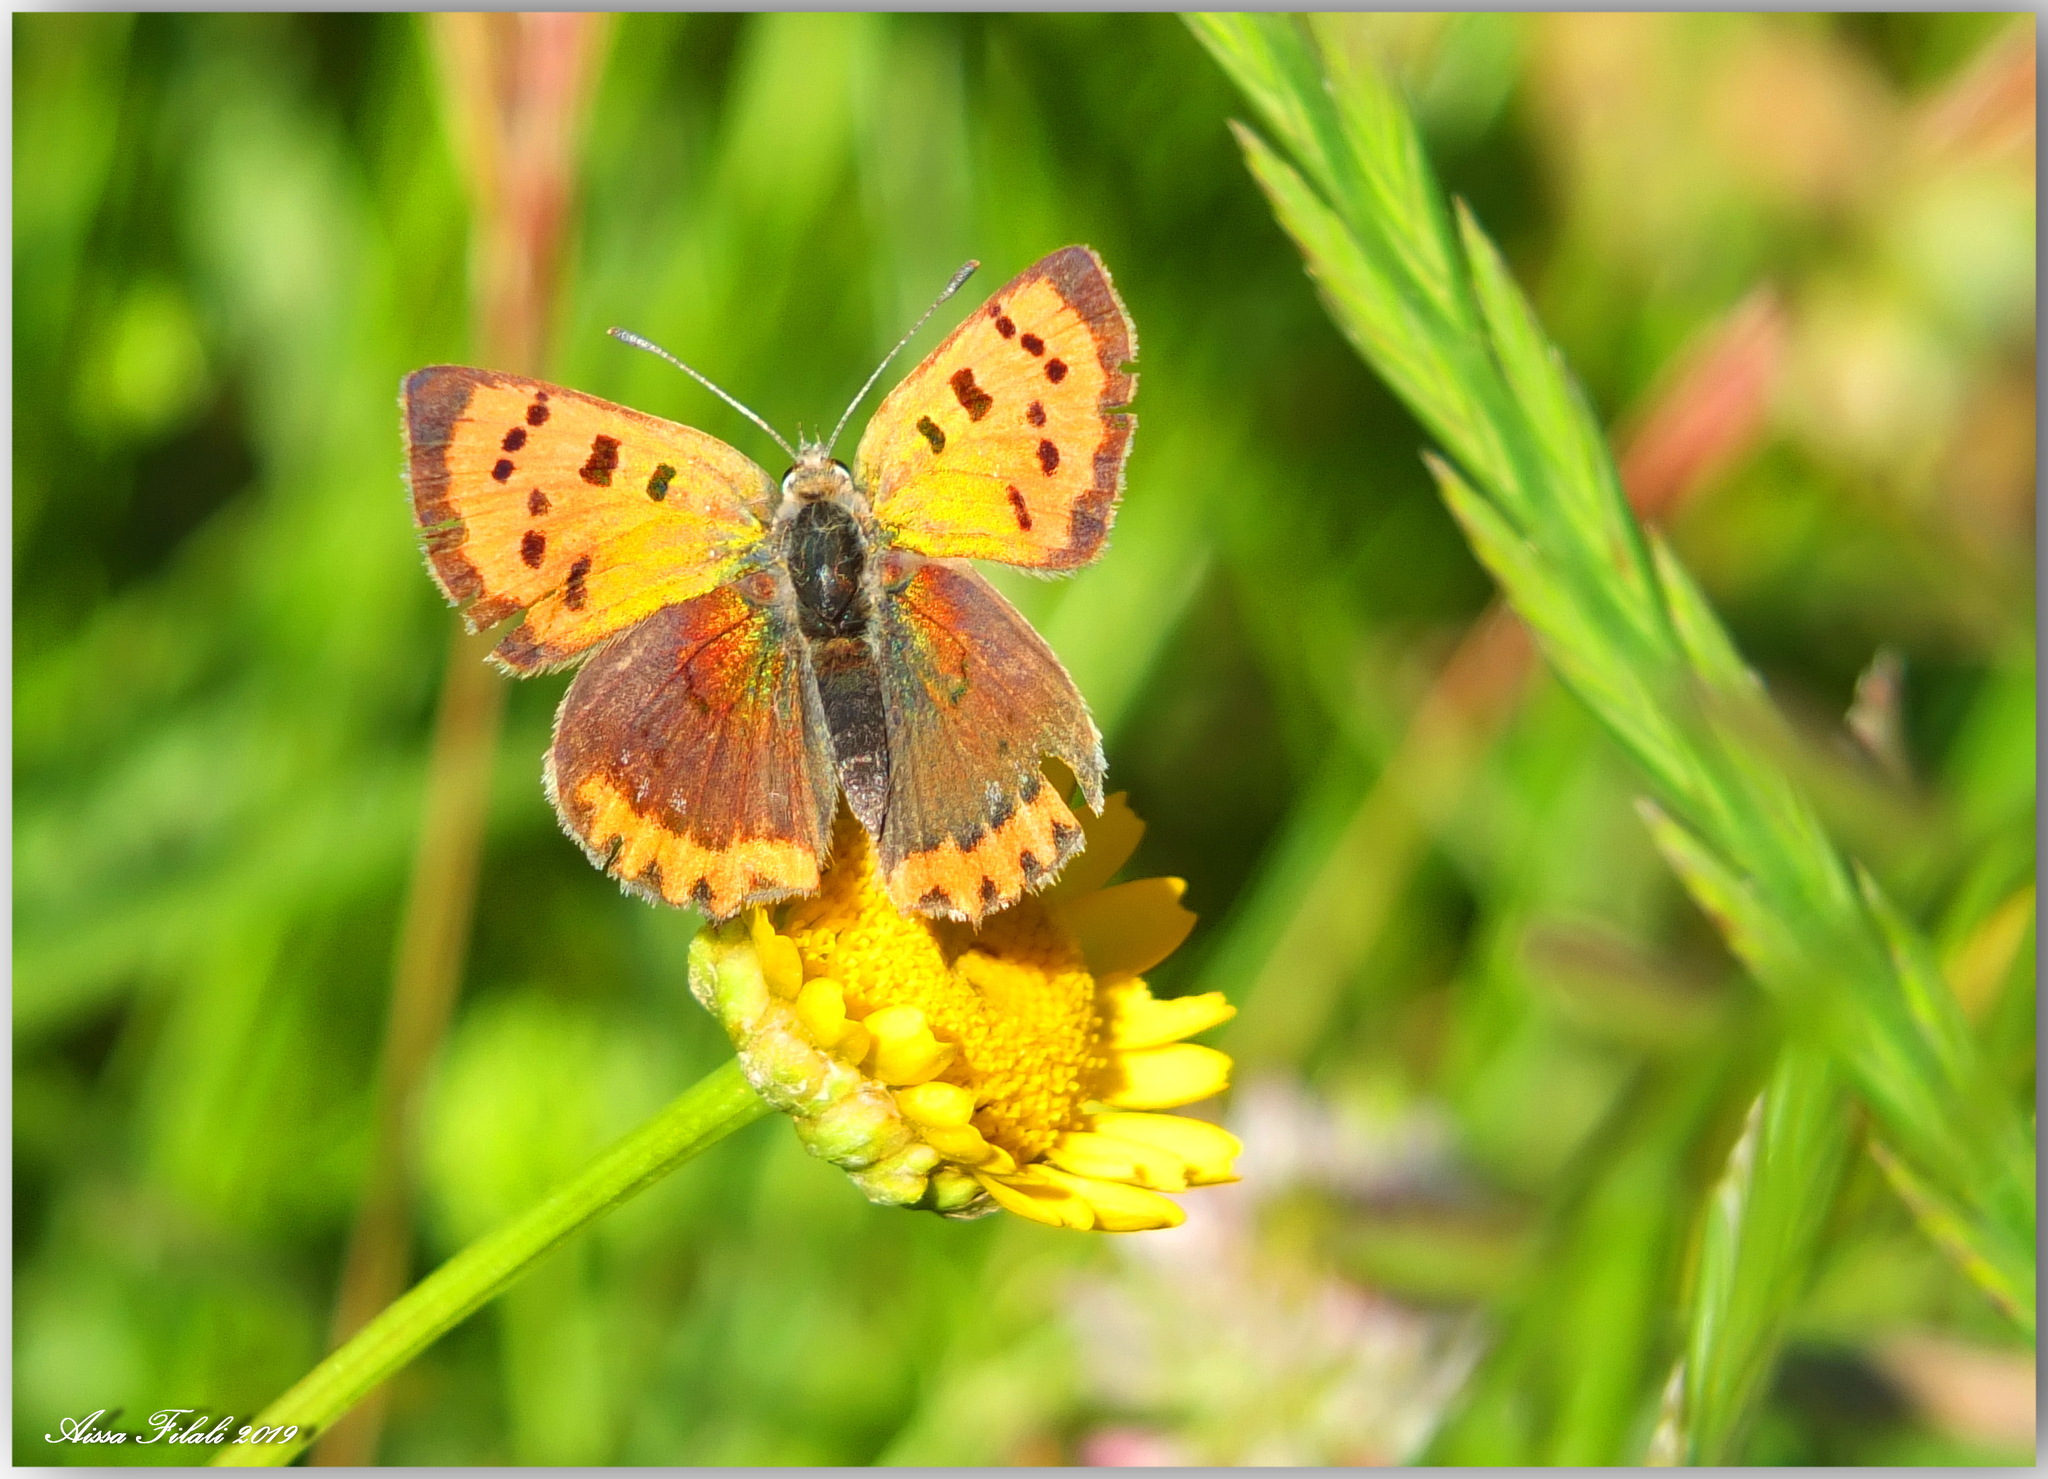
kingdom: Animalia
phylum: Arthropoda
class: Insecta
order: Lepidoptera
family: Lycaenidae
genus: Lycaena
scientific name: Lycaena phlaeas
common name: Small copper
